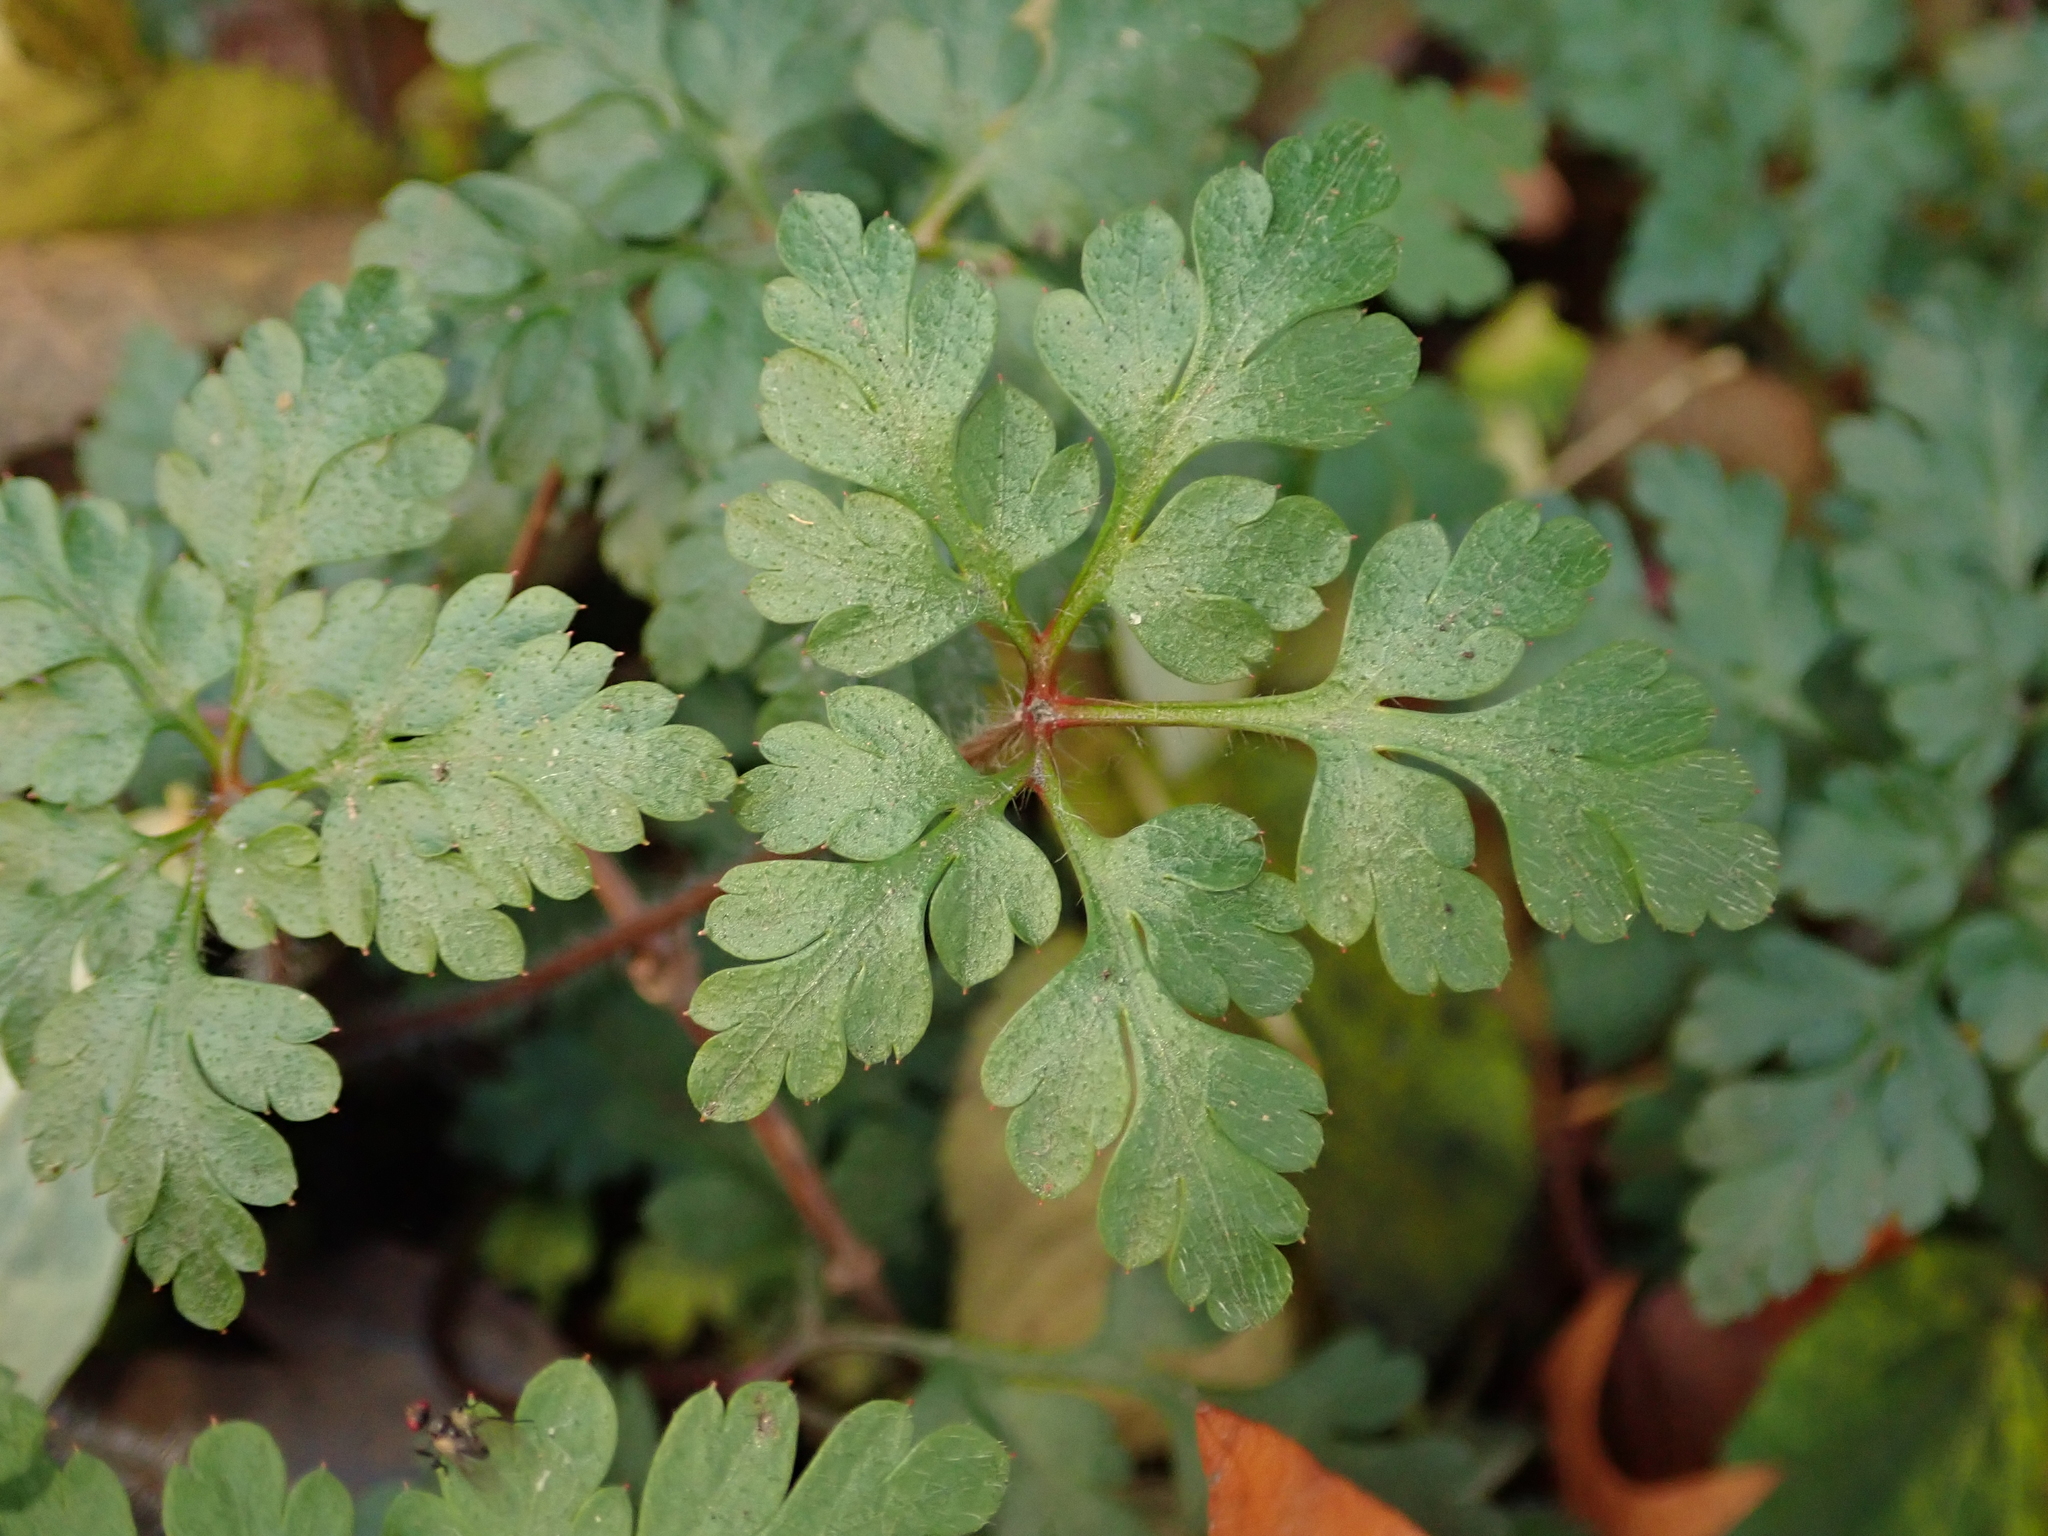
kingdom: Plantae
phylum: Tracheophyta
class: Magnoliopsida
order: Geraniales
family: Geraniaceae
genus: Geranium
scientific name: Geranium robertianum
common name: Herb-robert
